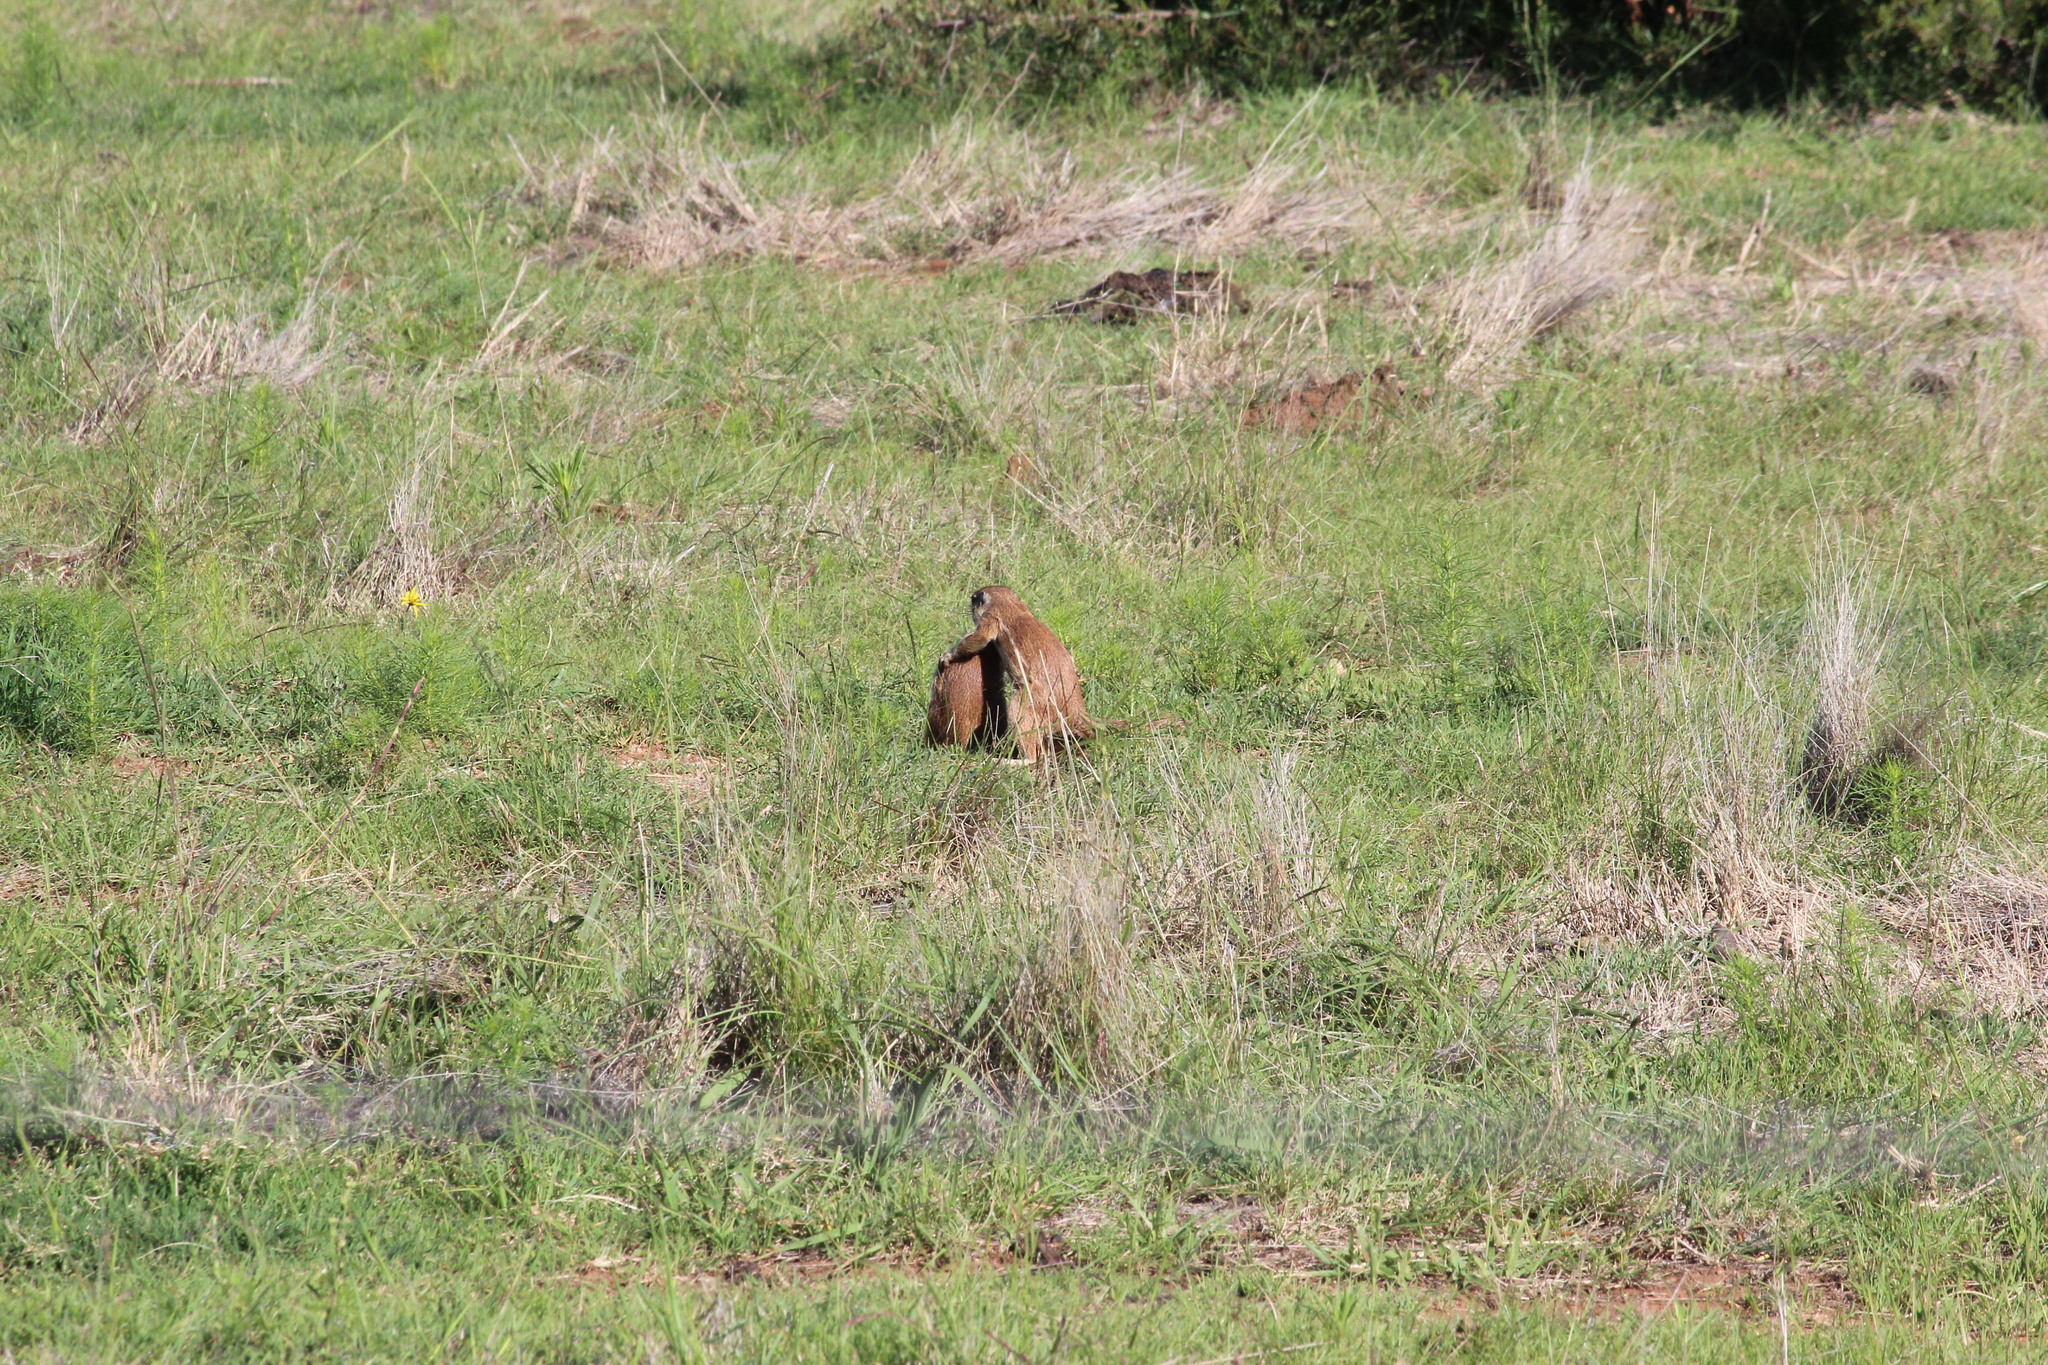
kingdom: Animalia
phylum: Chordata
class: Mammalia
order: Rodentia
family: Sciuridae
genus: Xerus
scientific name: Xerus inauris
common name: South african ground squirrel
